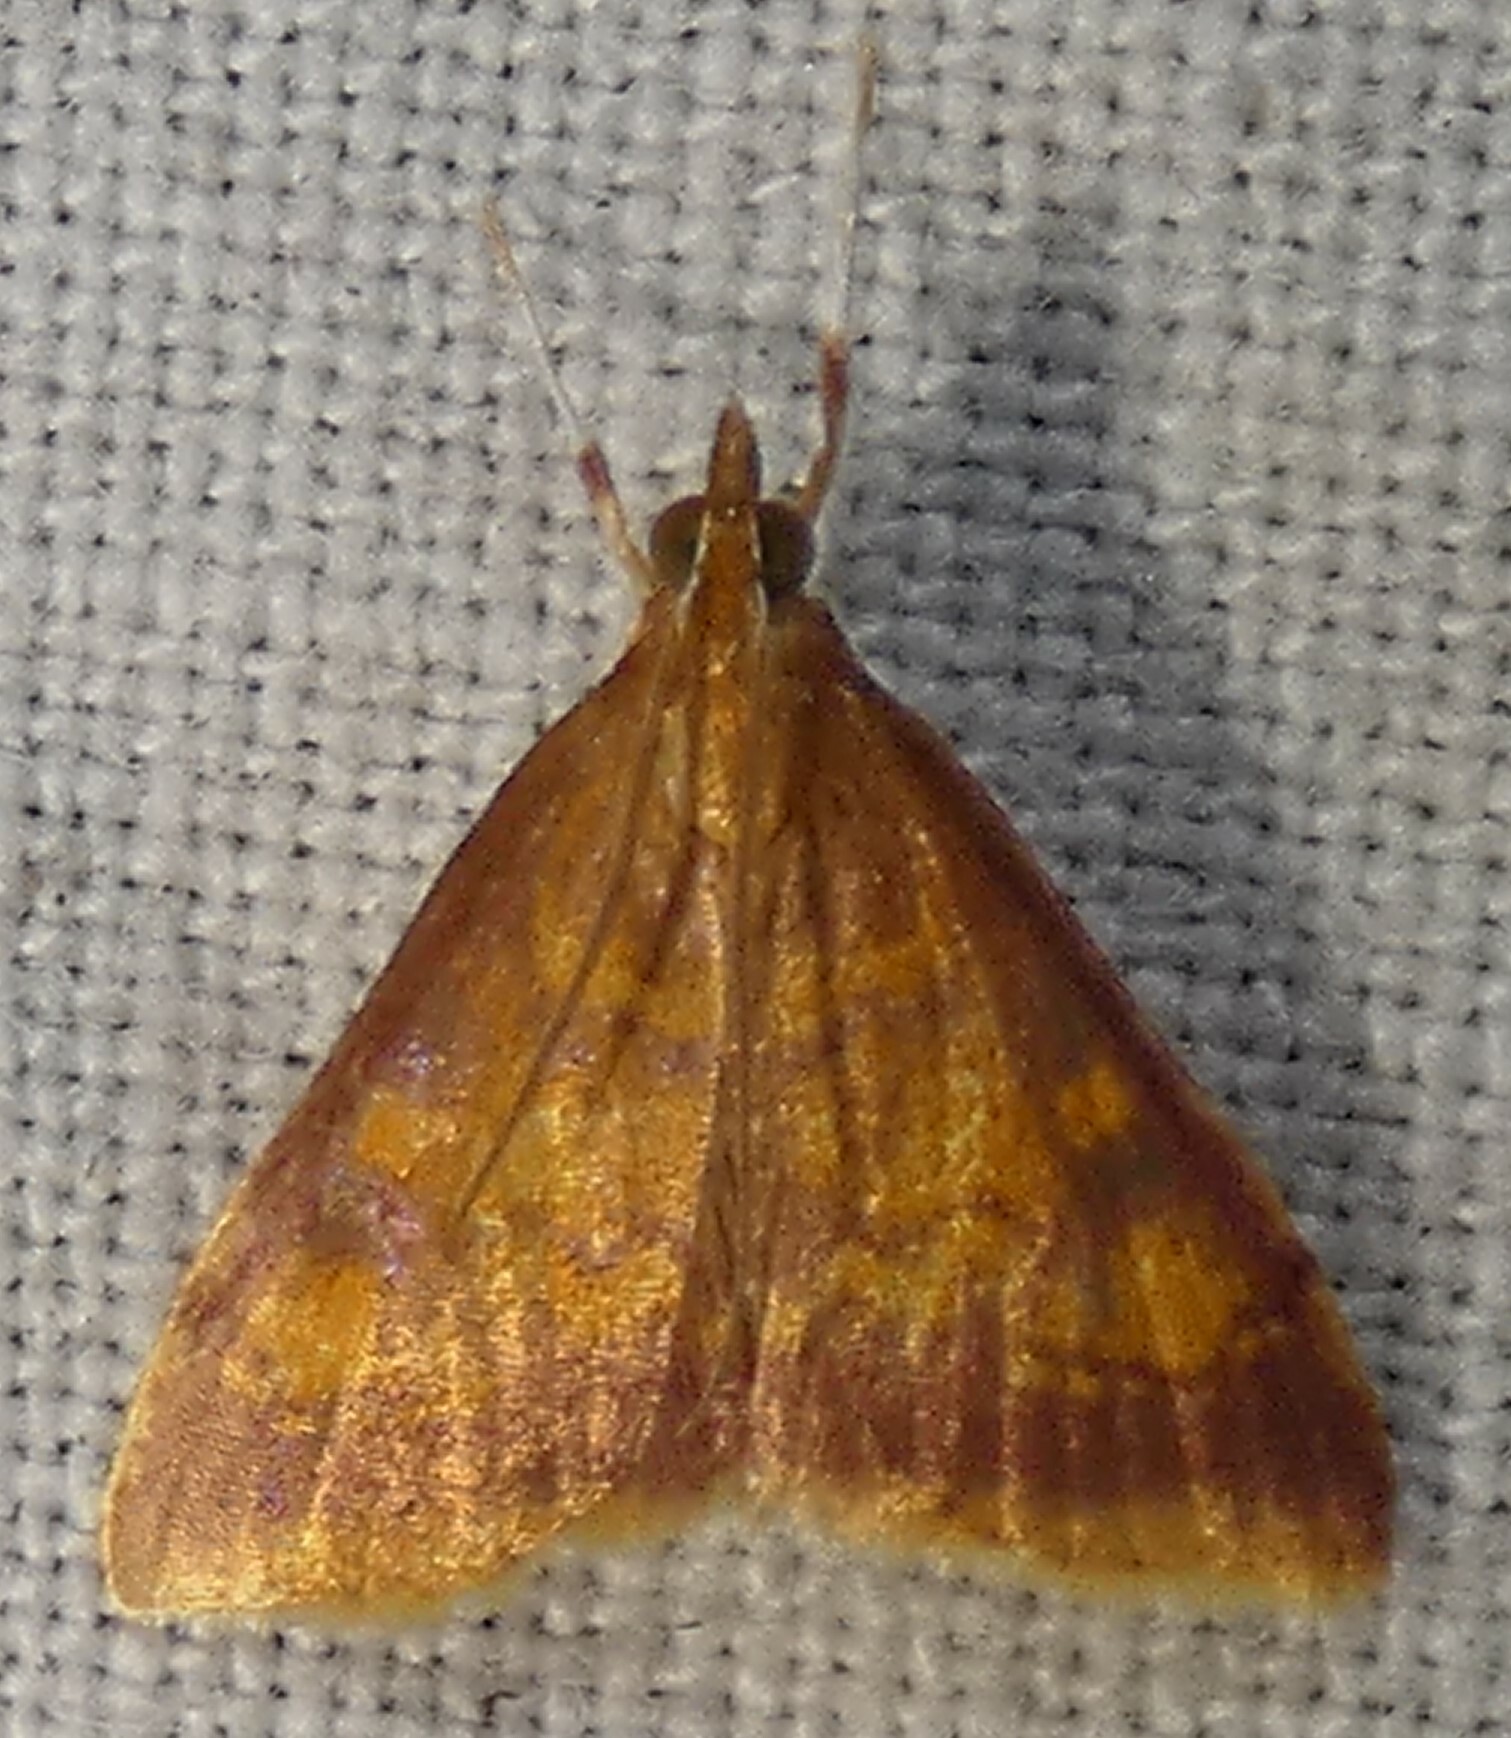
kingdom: Animalia
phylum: Arthropoda
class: Insecta
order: Lepidoptera
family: Crambidae
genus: Pyrausta
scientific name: Pyrausta acrionalis
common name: Mint-loving pyrausta moth
